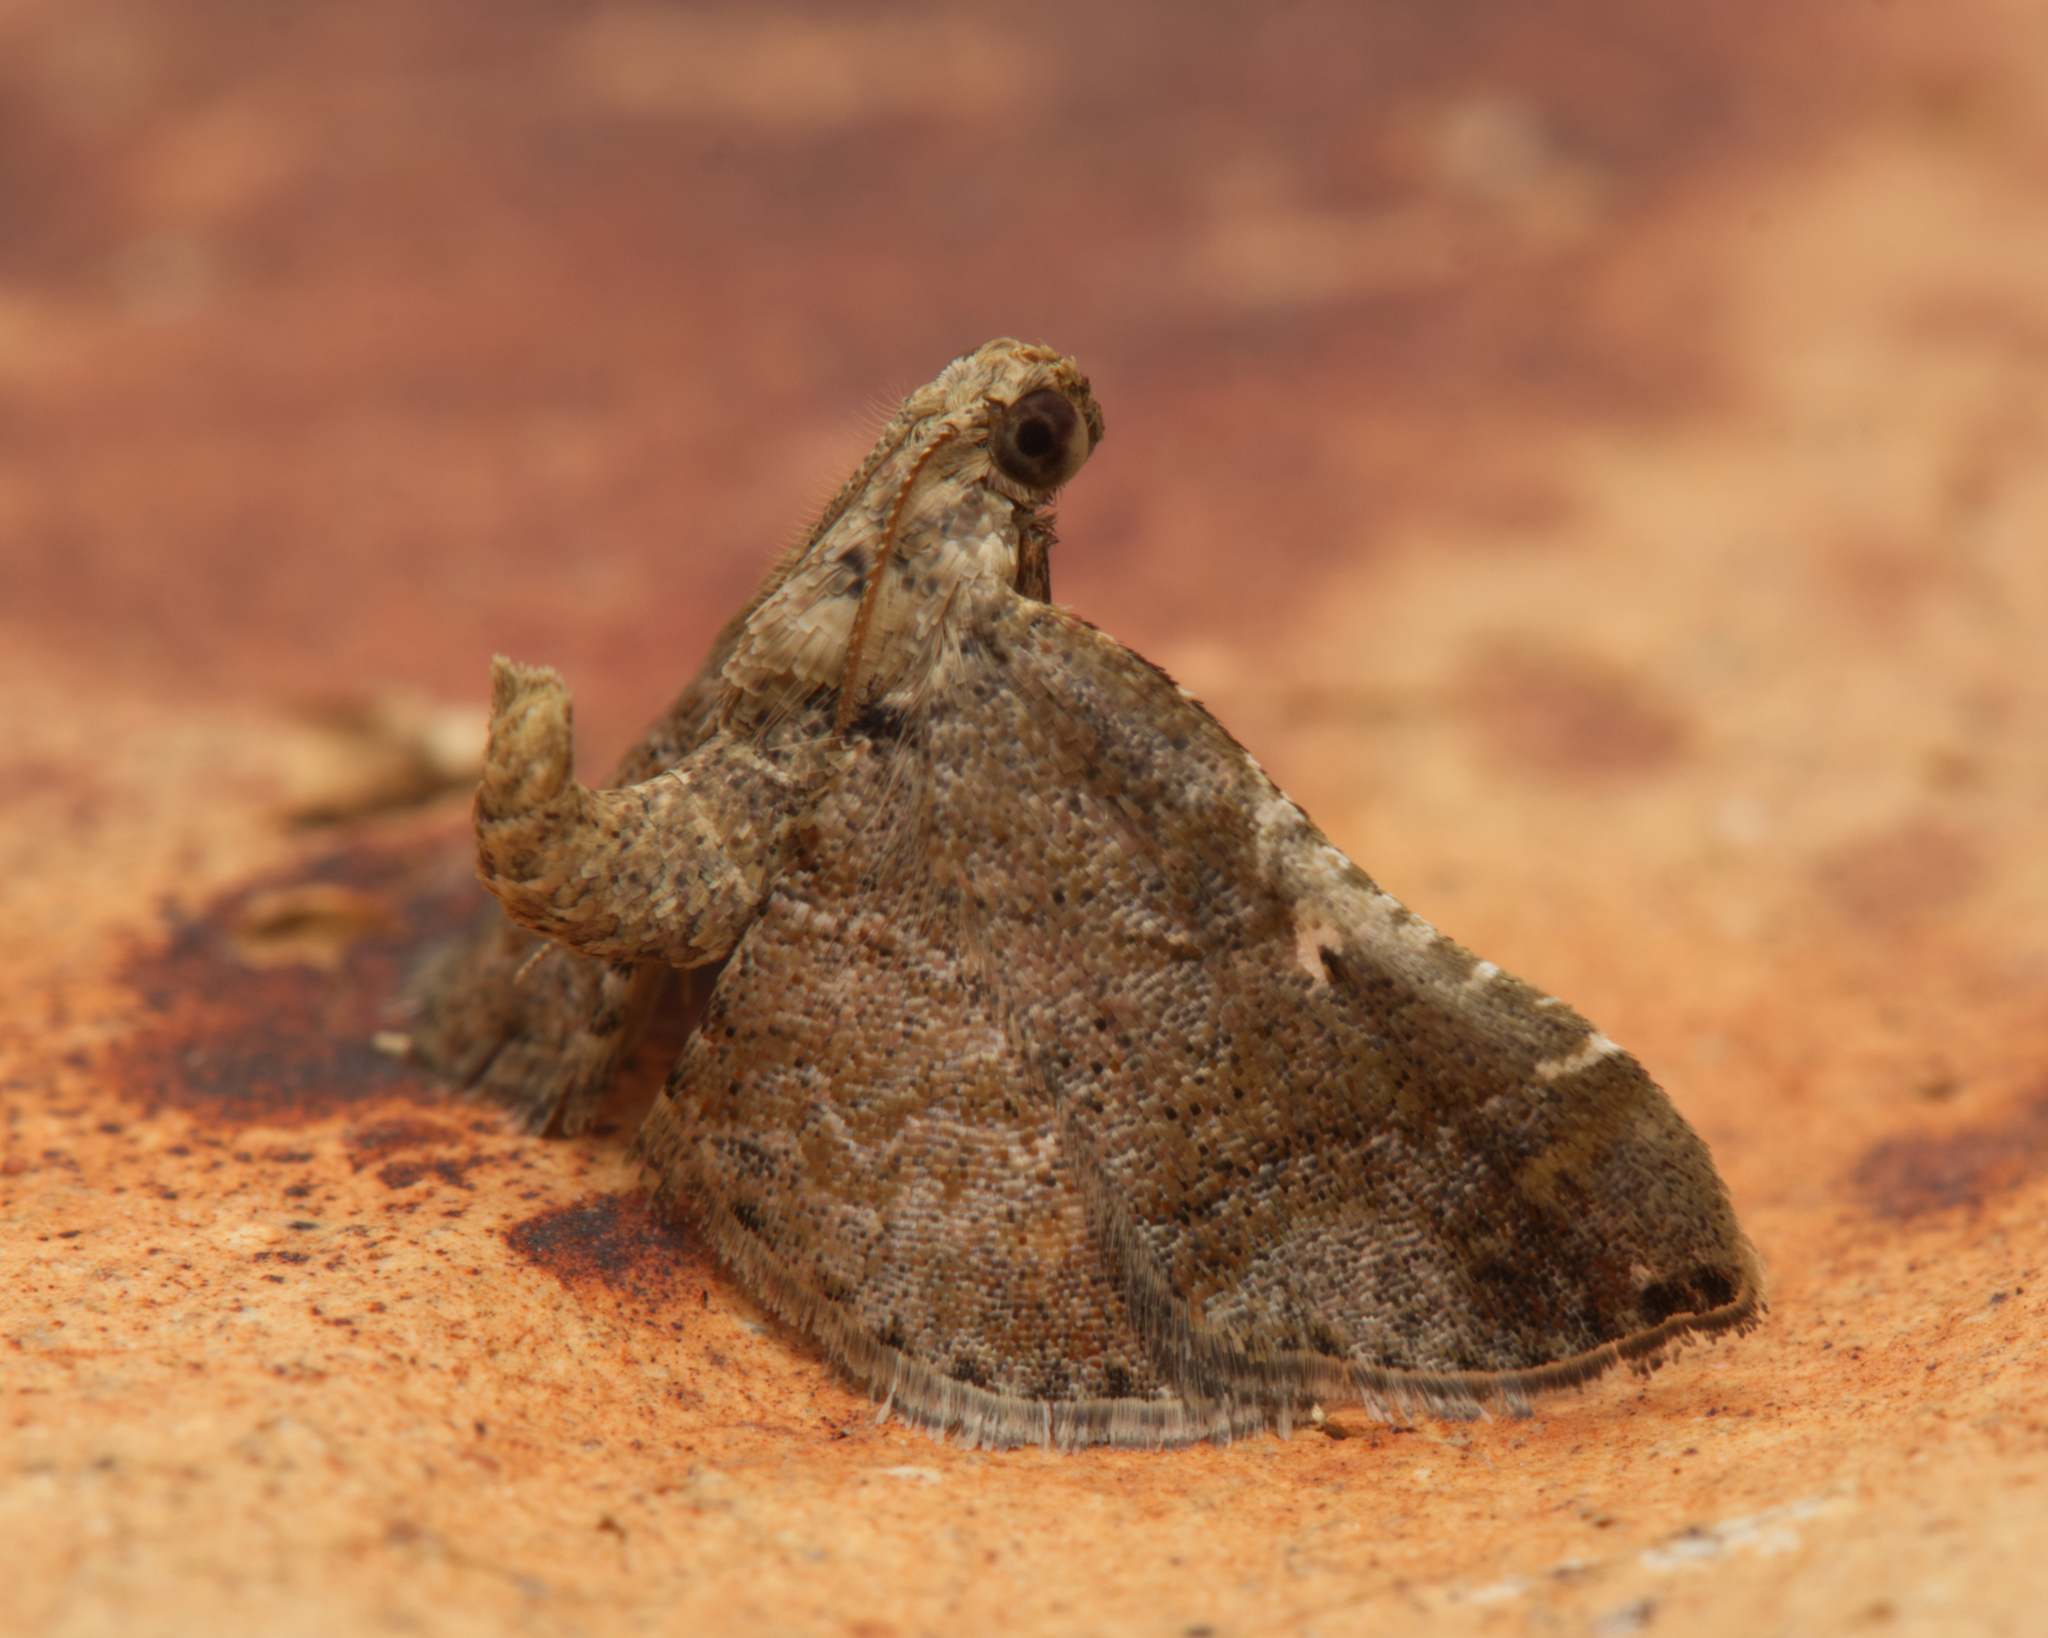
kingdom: Animalia
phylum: Arthropoda
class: Insecta
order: Lepidoptera
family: Pyralidae
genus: Scenedra
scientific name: Scenedra decoratalis
